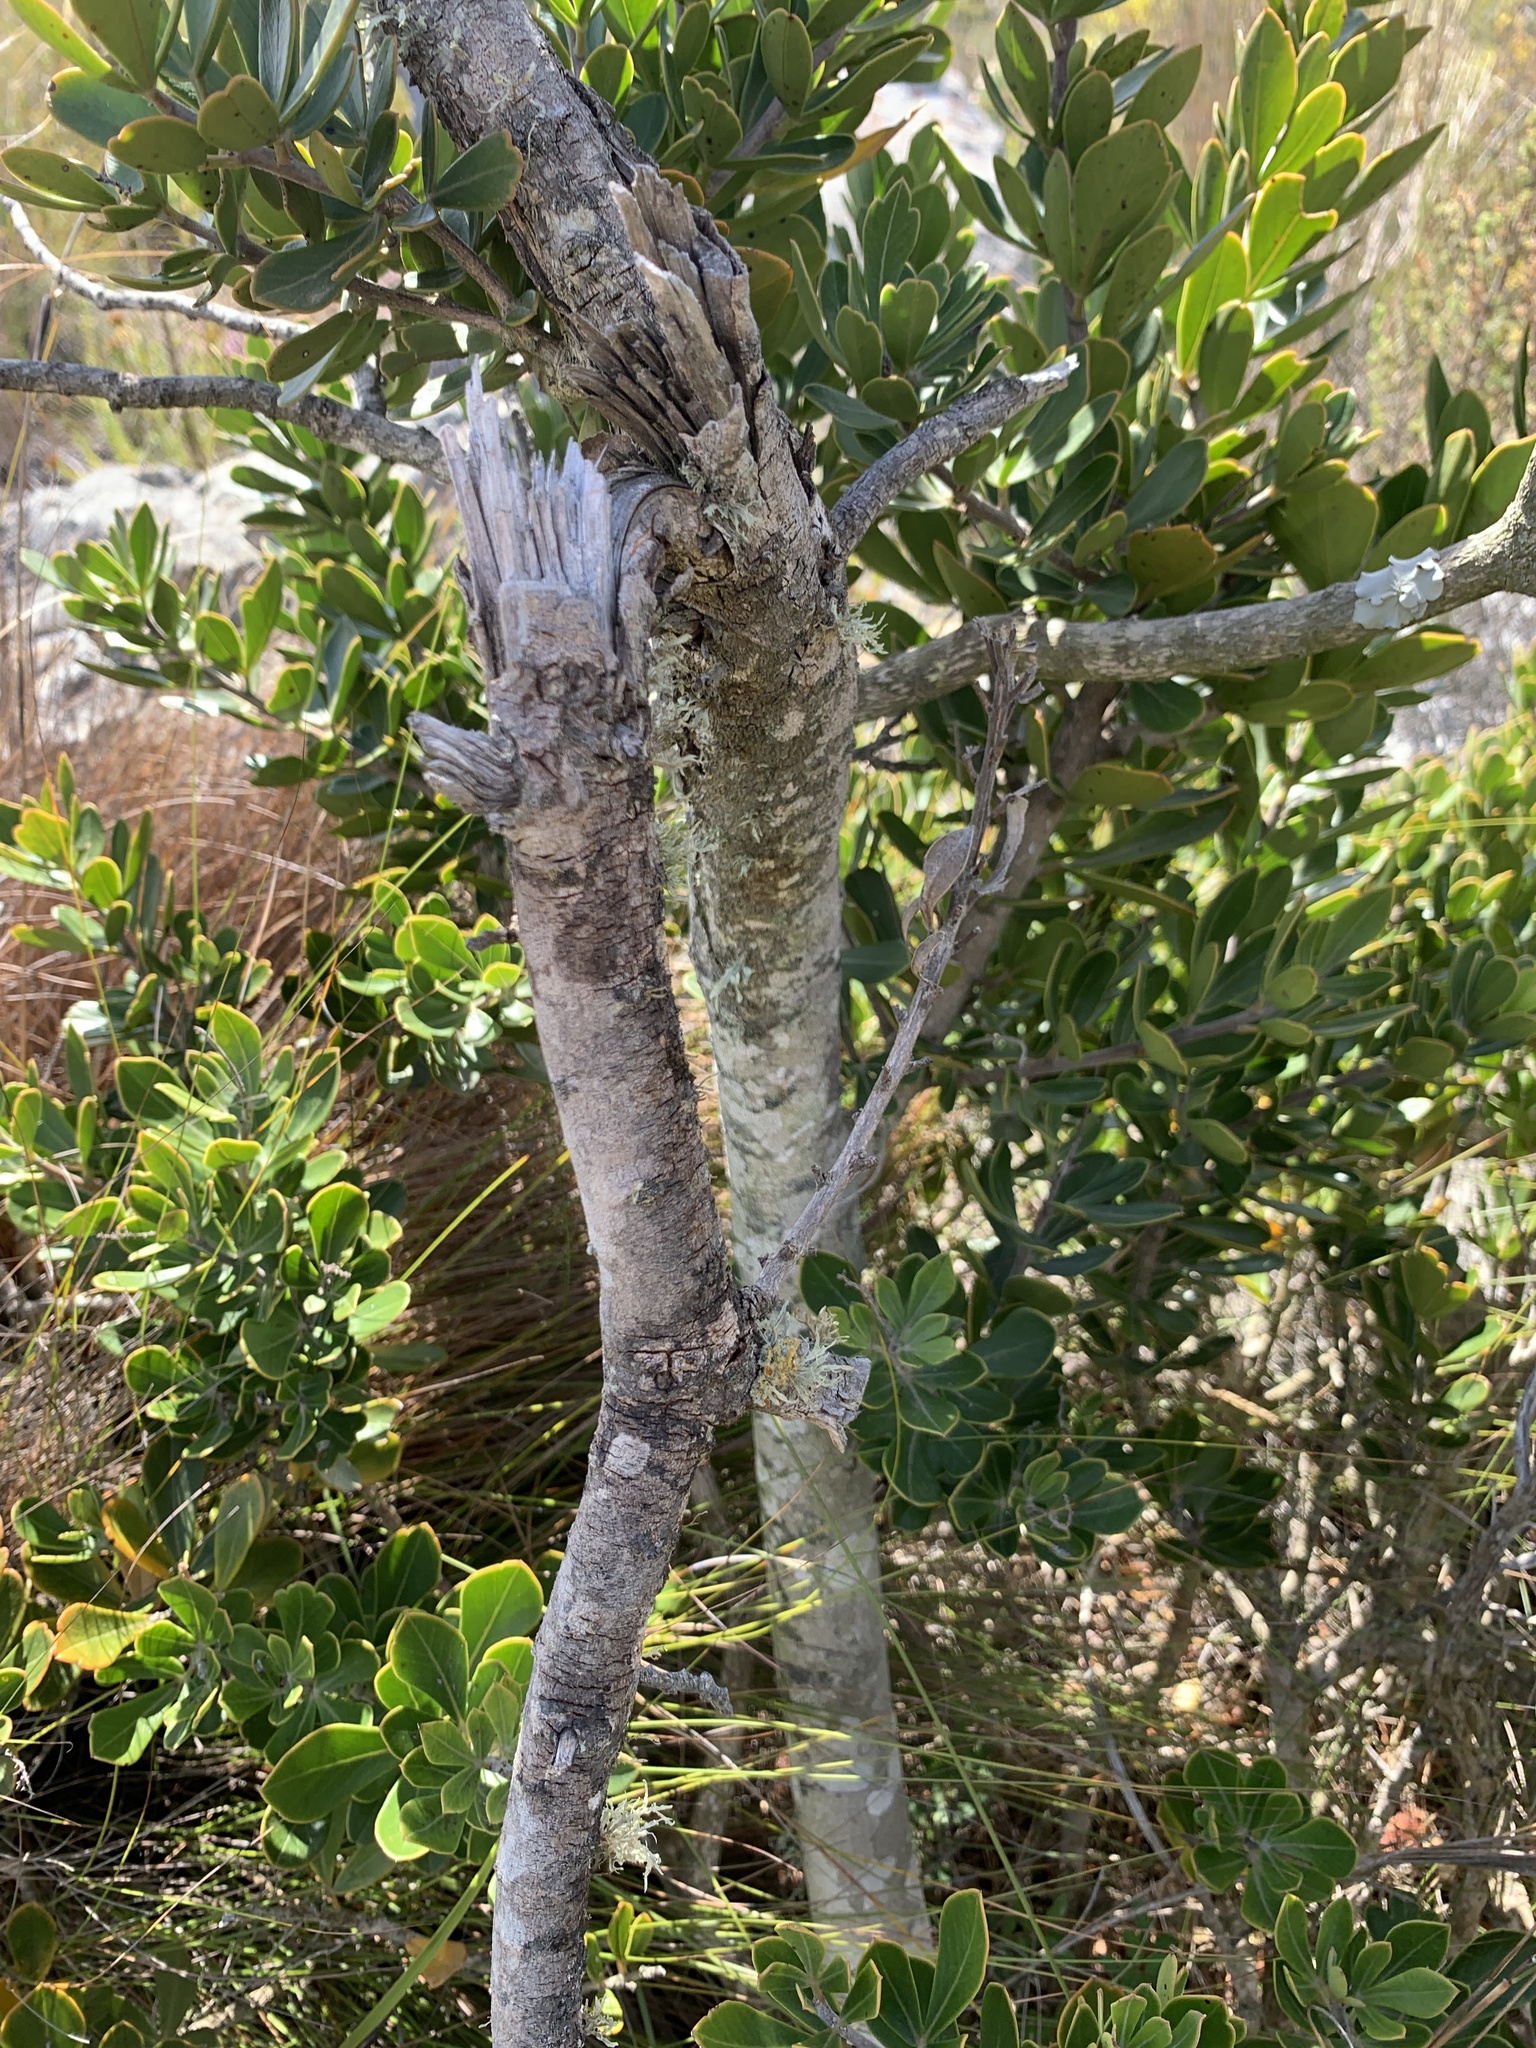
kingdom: Plantae
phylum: Tracheophyta
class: Magnoliopsida
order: Sapindales
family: Anacardiaceae
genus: Searsia
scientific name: Searsia scytophylla
